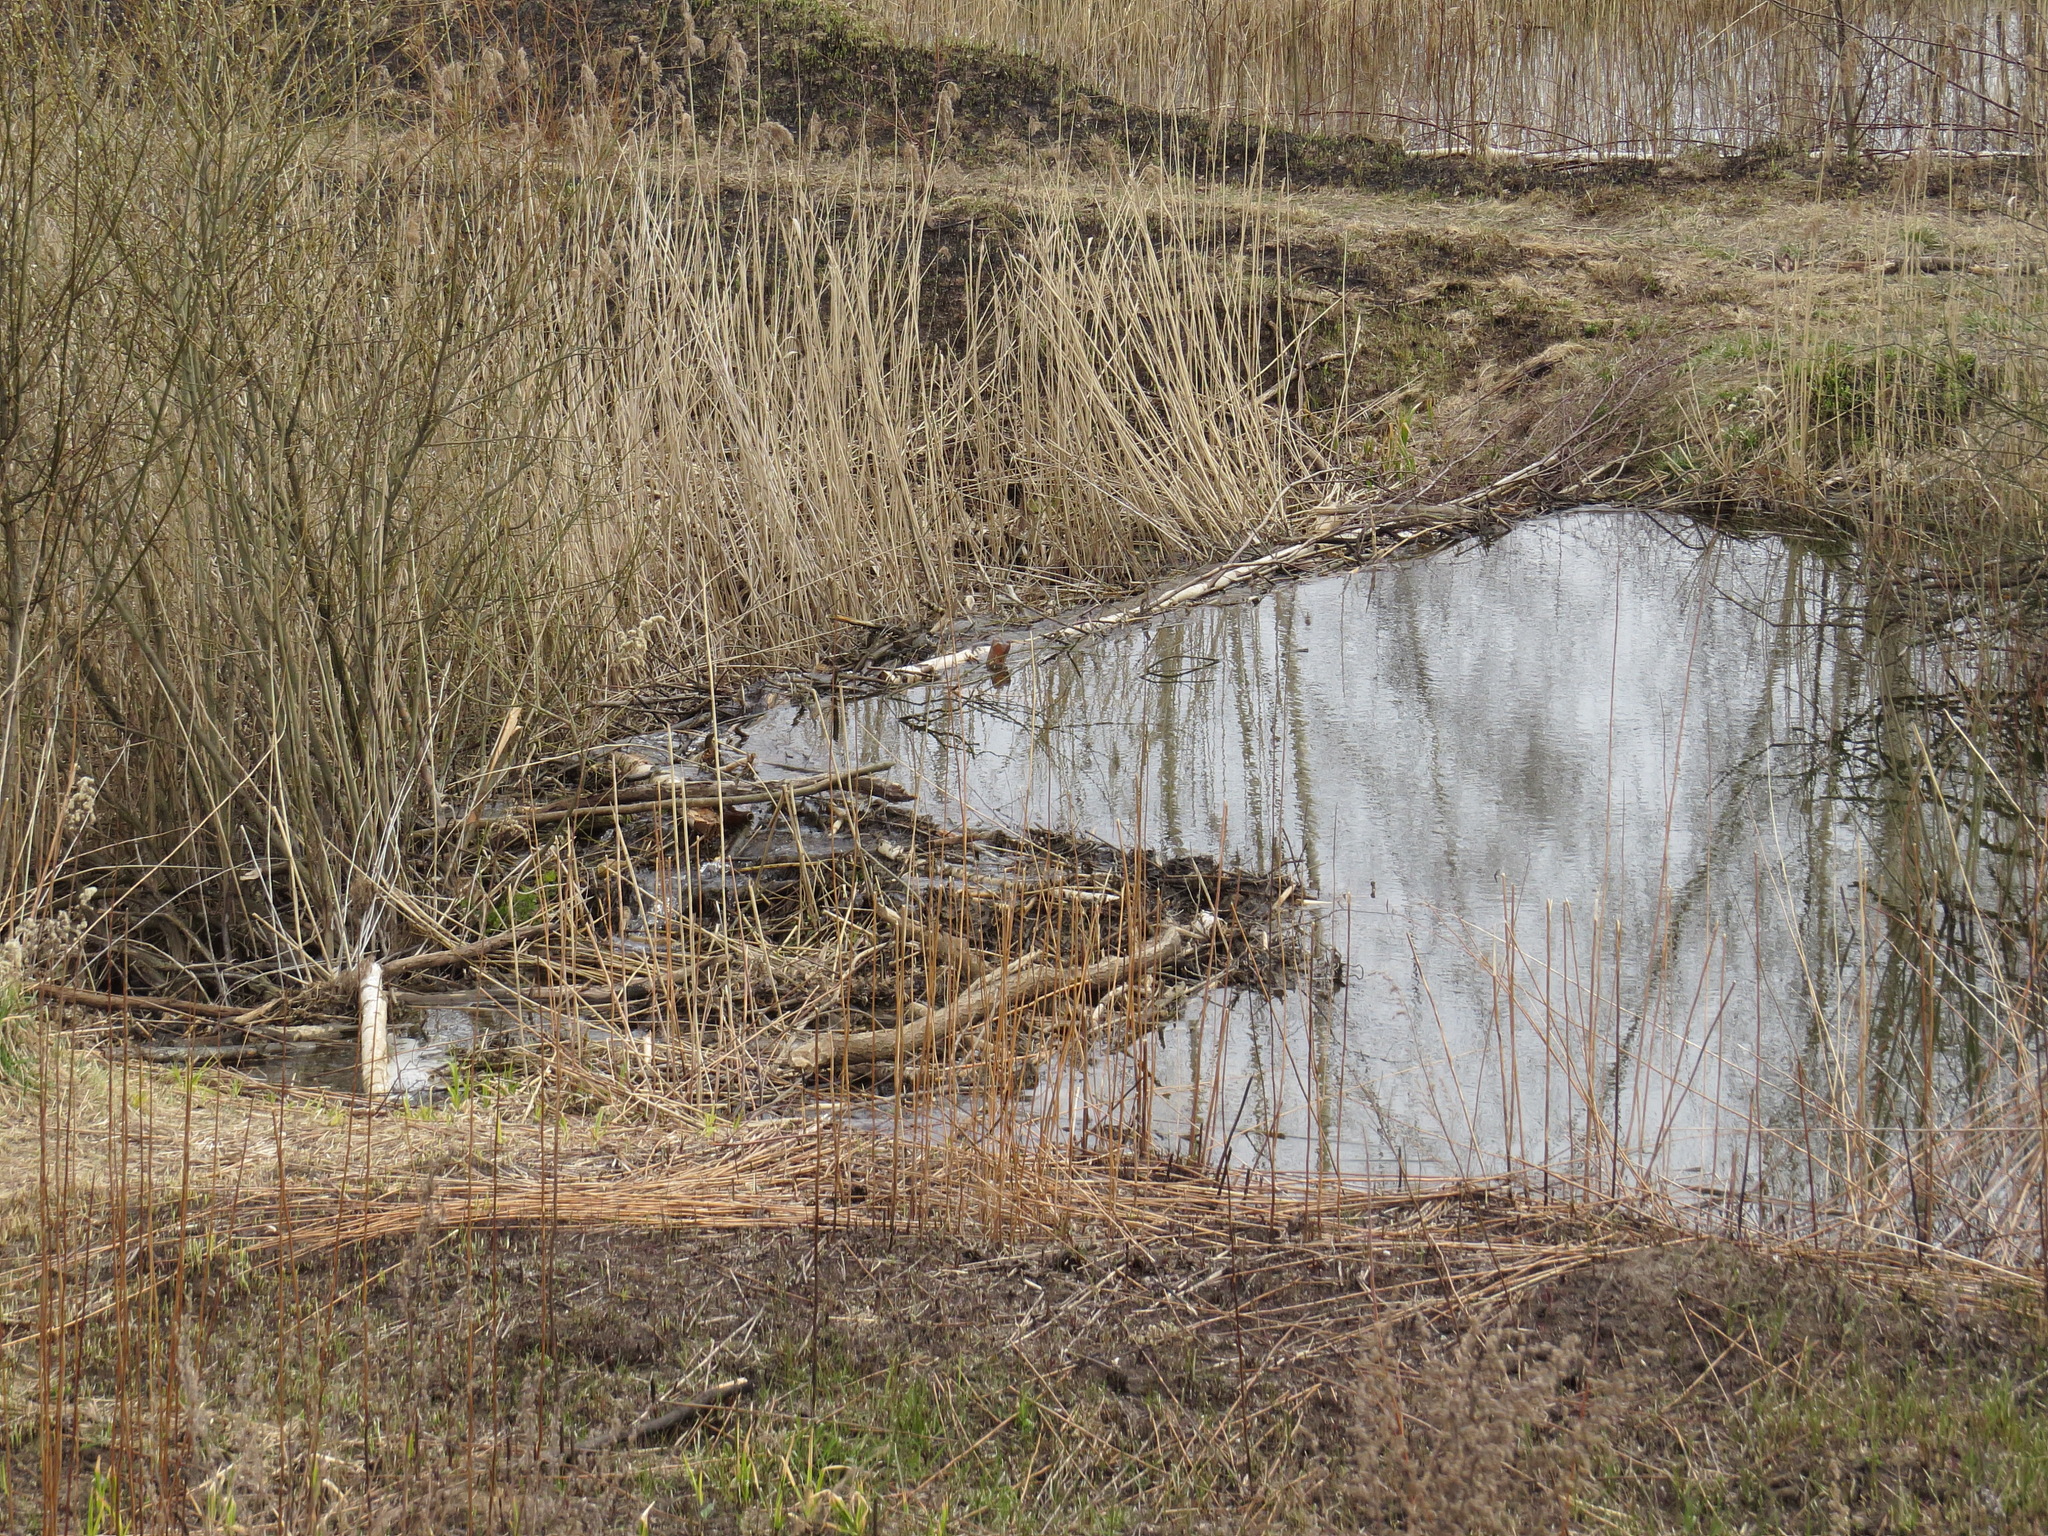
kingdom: Animalia
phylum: Chordata
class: Mammalia
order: Rodentia
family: Castoridae
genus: Castor
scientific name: Castor fiber
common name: Eurasian beaver
